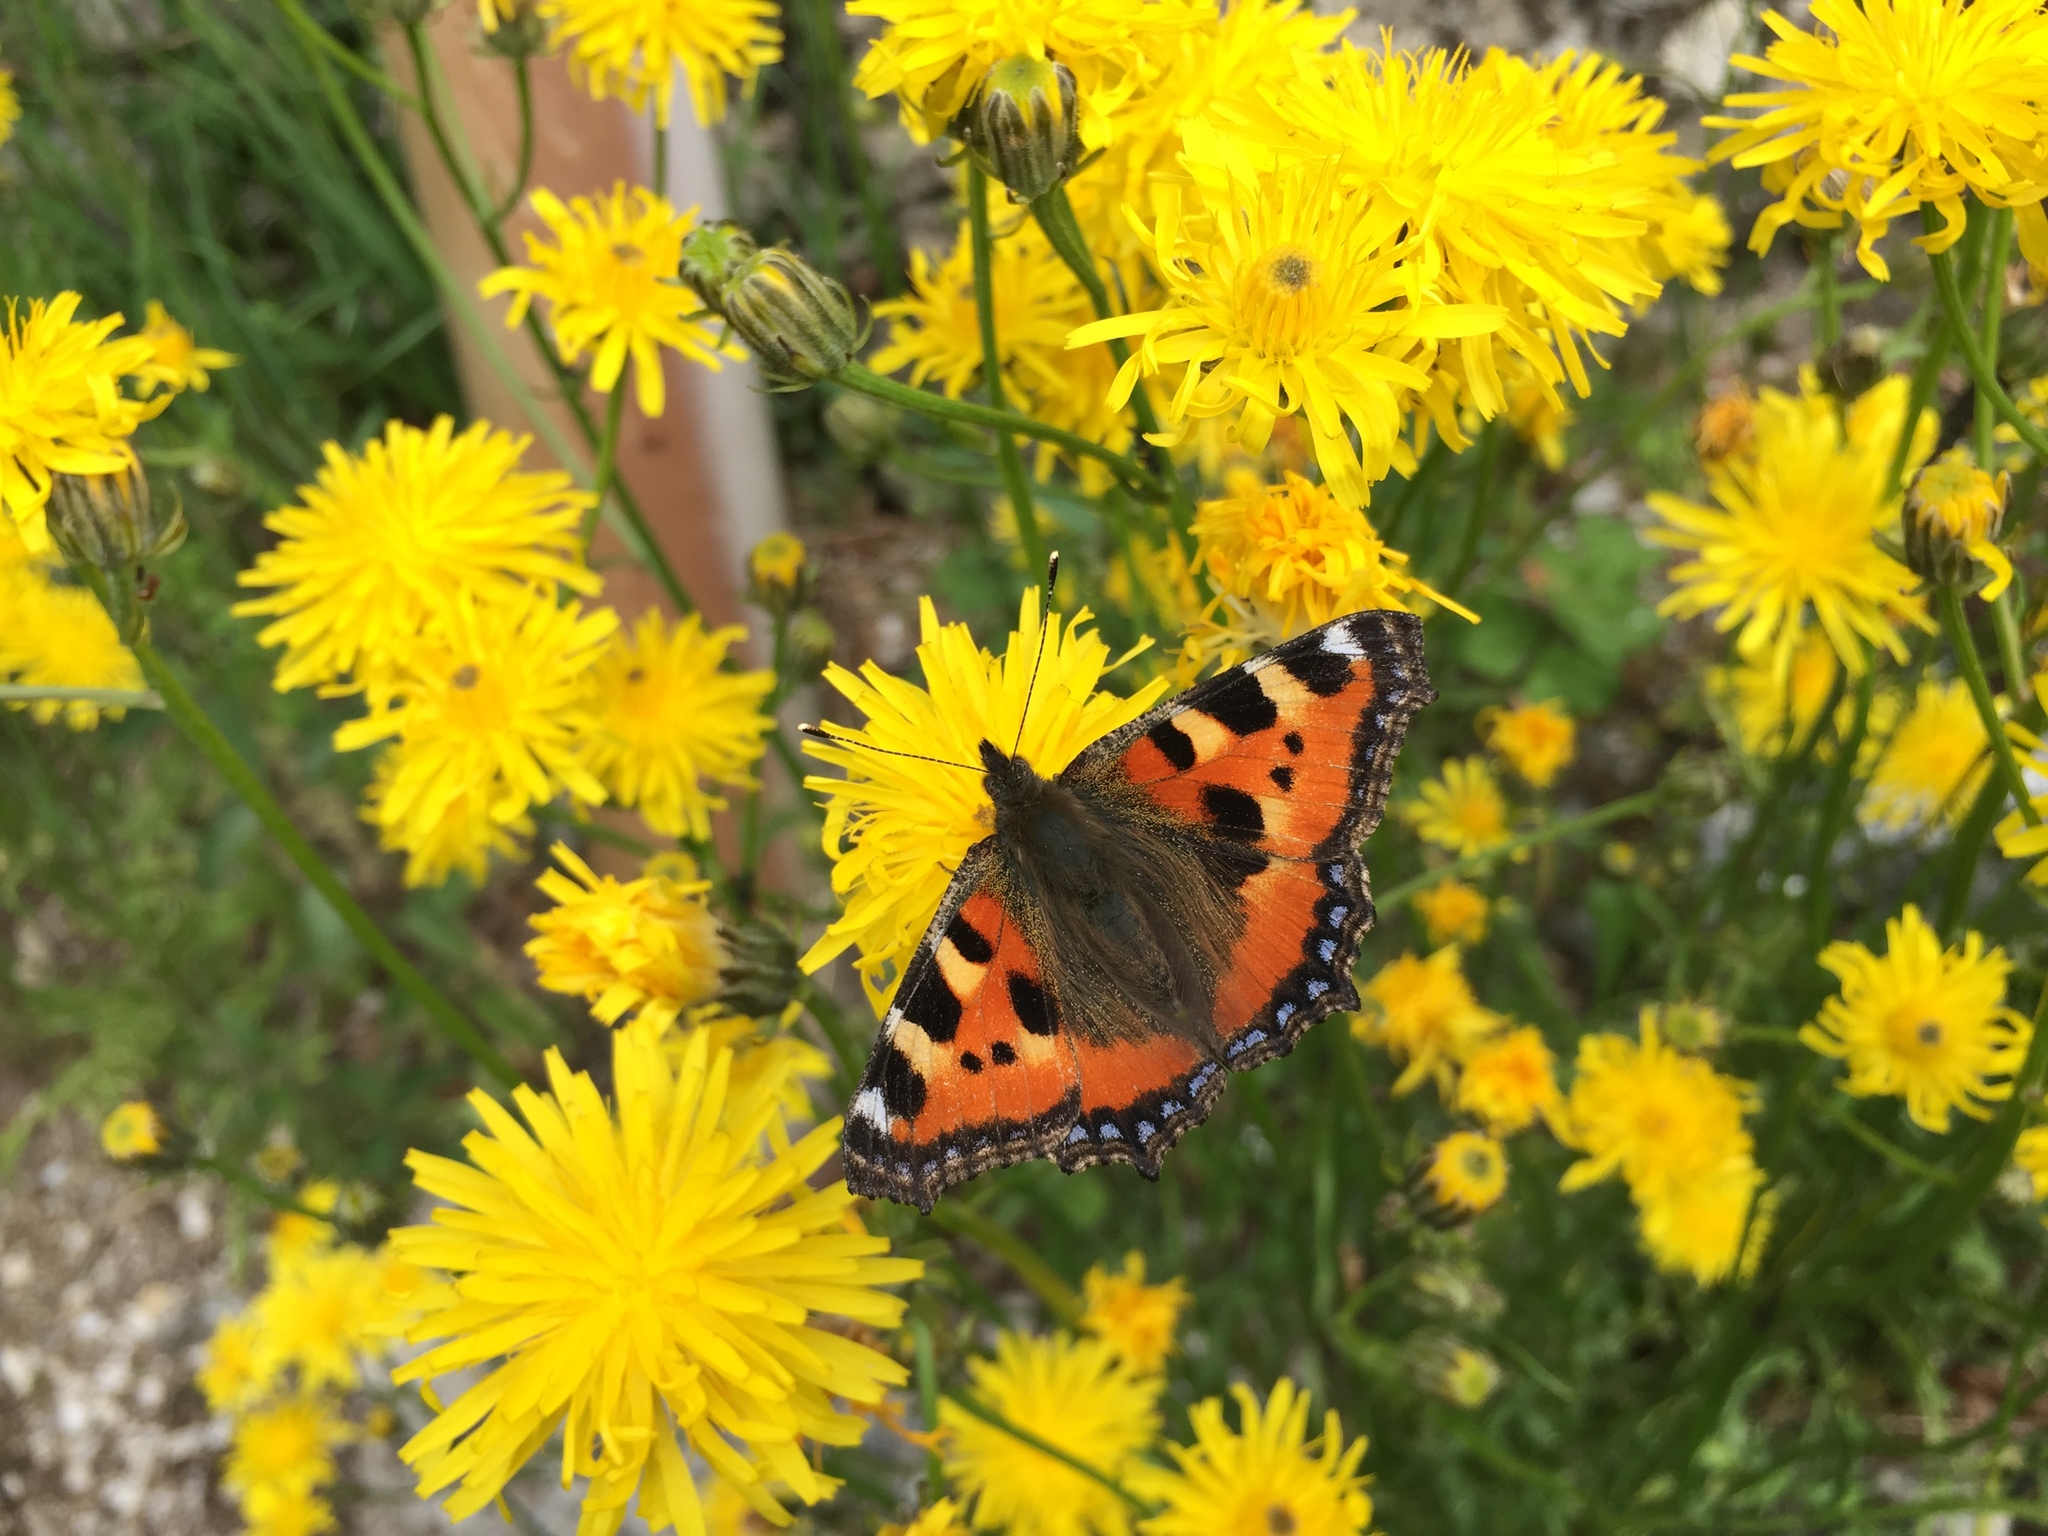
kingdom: Animalia
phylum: Arthropoda
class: Insecta
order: Lepidoptera
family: Nymphalidae
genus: Aglais
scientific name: Aglais urticae
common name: Small tortoiseshell
